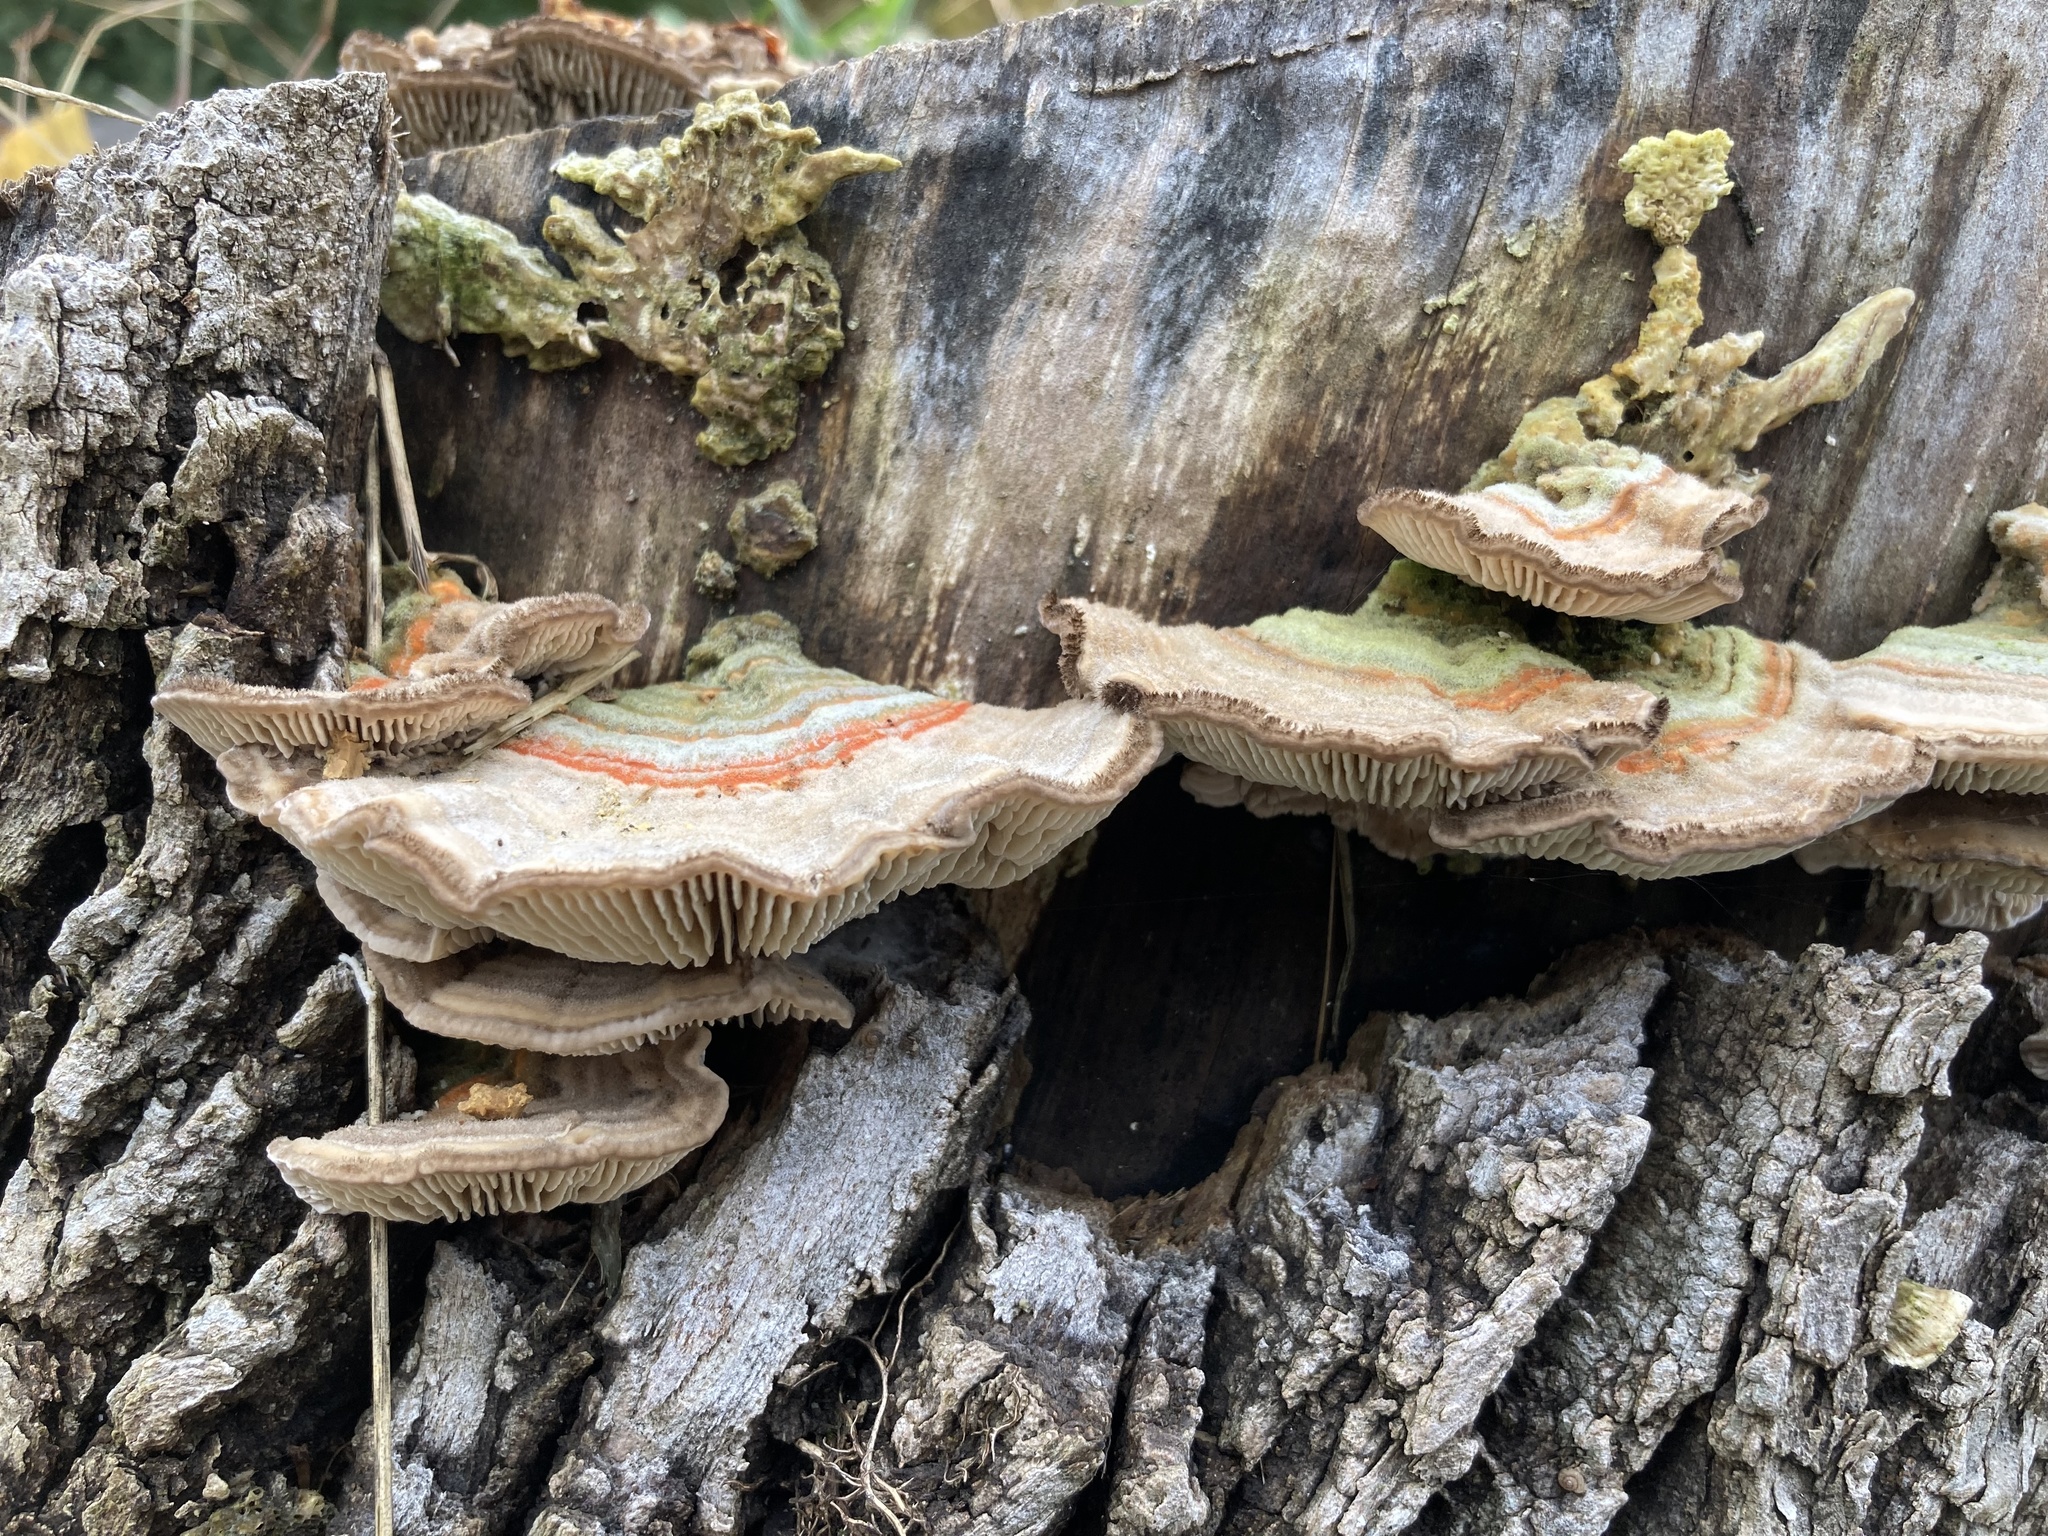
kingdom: Fungi
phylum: Basidiomycota
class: Agaricomycetes
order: Polyporales
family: Polyporaceae
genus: Lenzites
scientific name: Lenzites betulinus
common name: Birch mazegill
